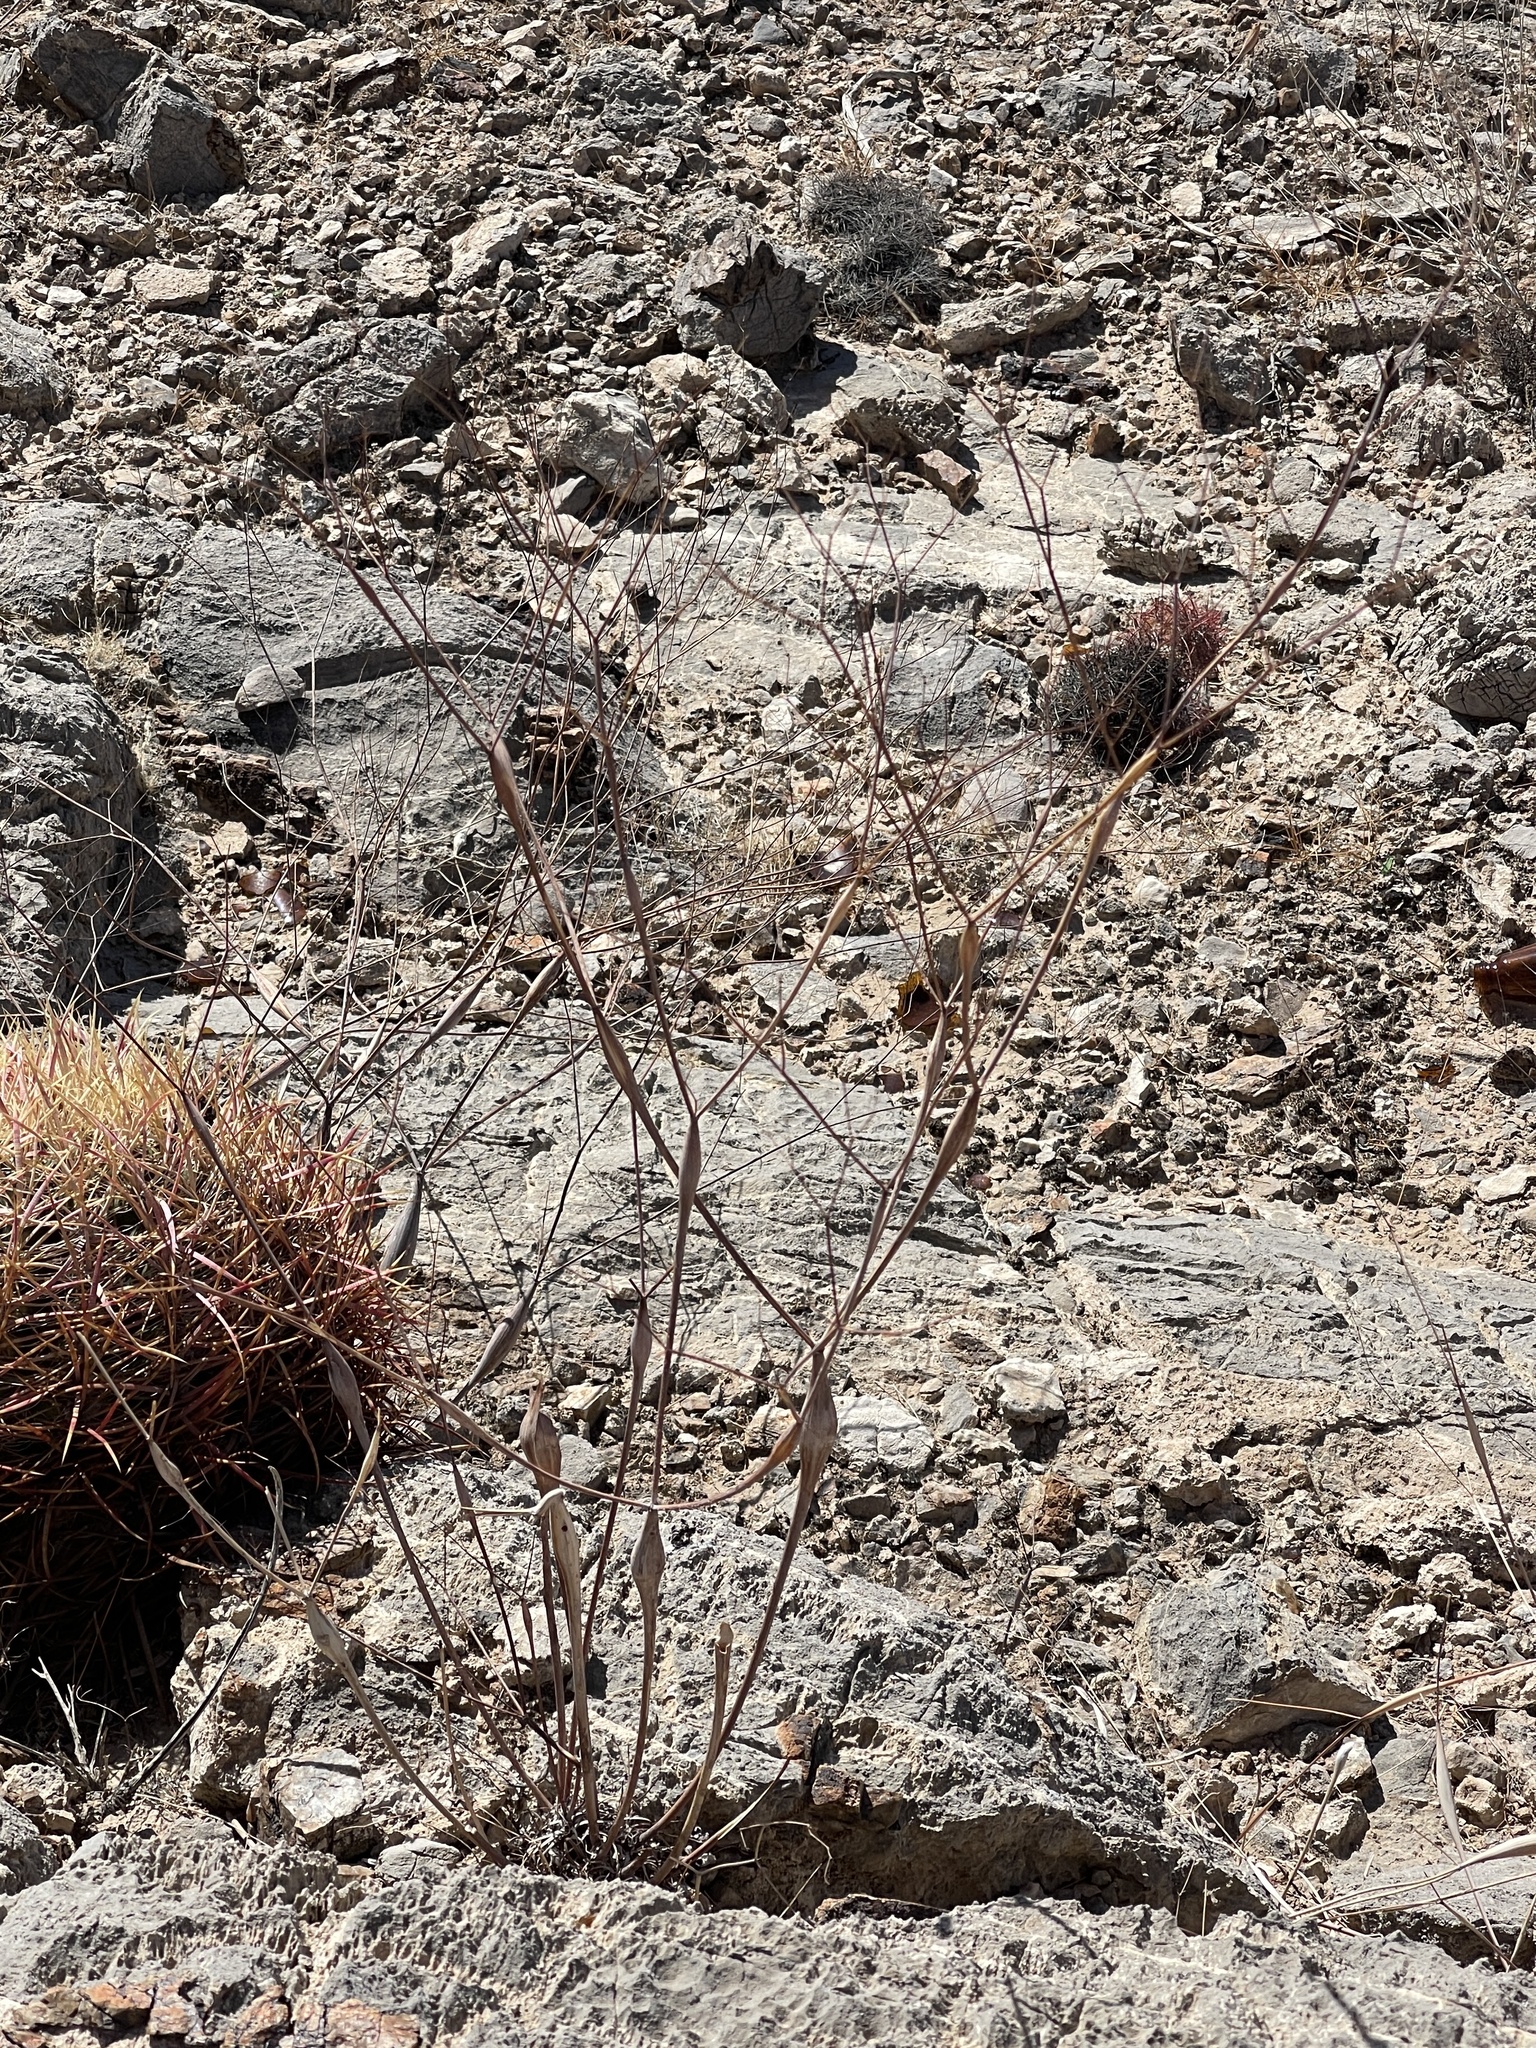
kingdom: Plantae
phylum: Tracheophyta
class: Magnoliopsida
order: Caryophyllales
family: Polygonaceae
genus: Eriogonum
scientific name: Eriogonum inflatum
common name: Desert trumpet
